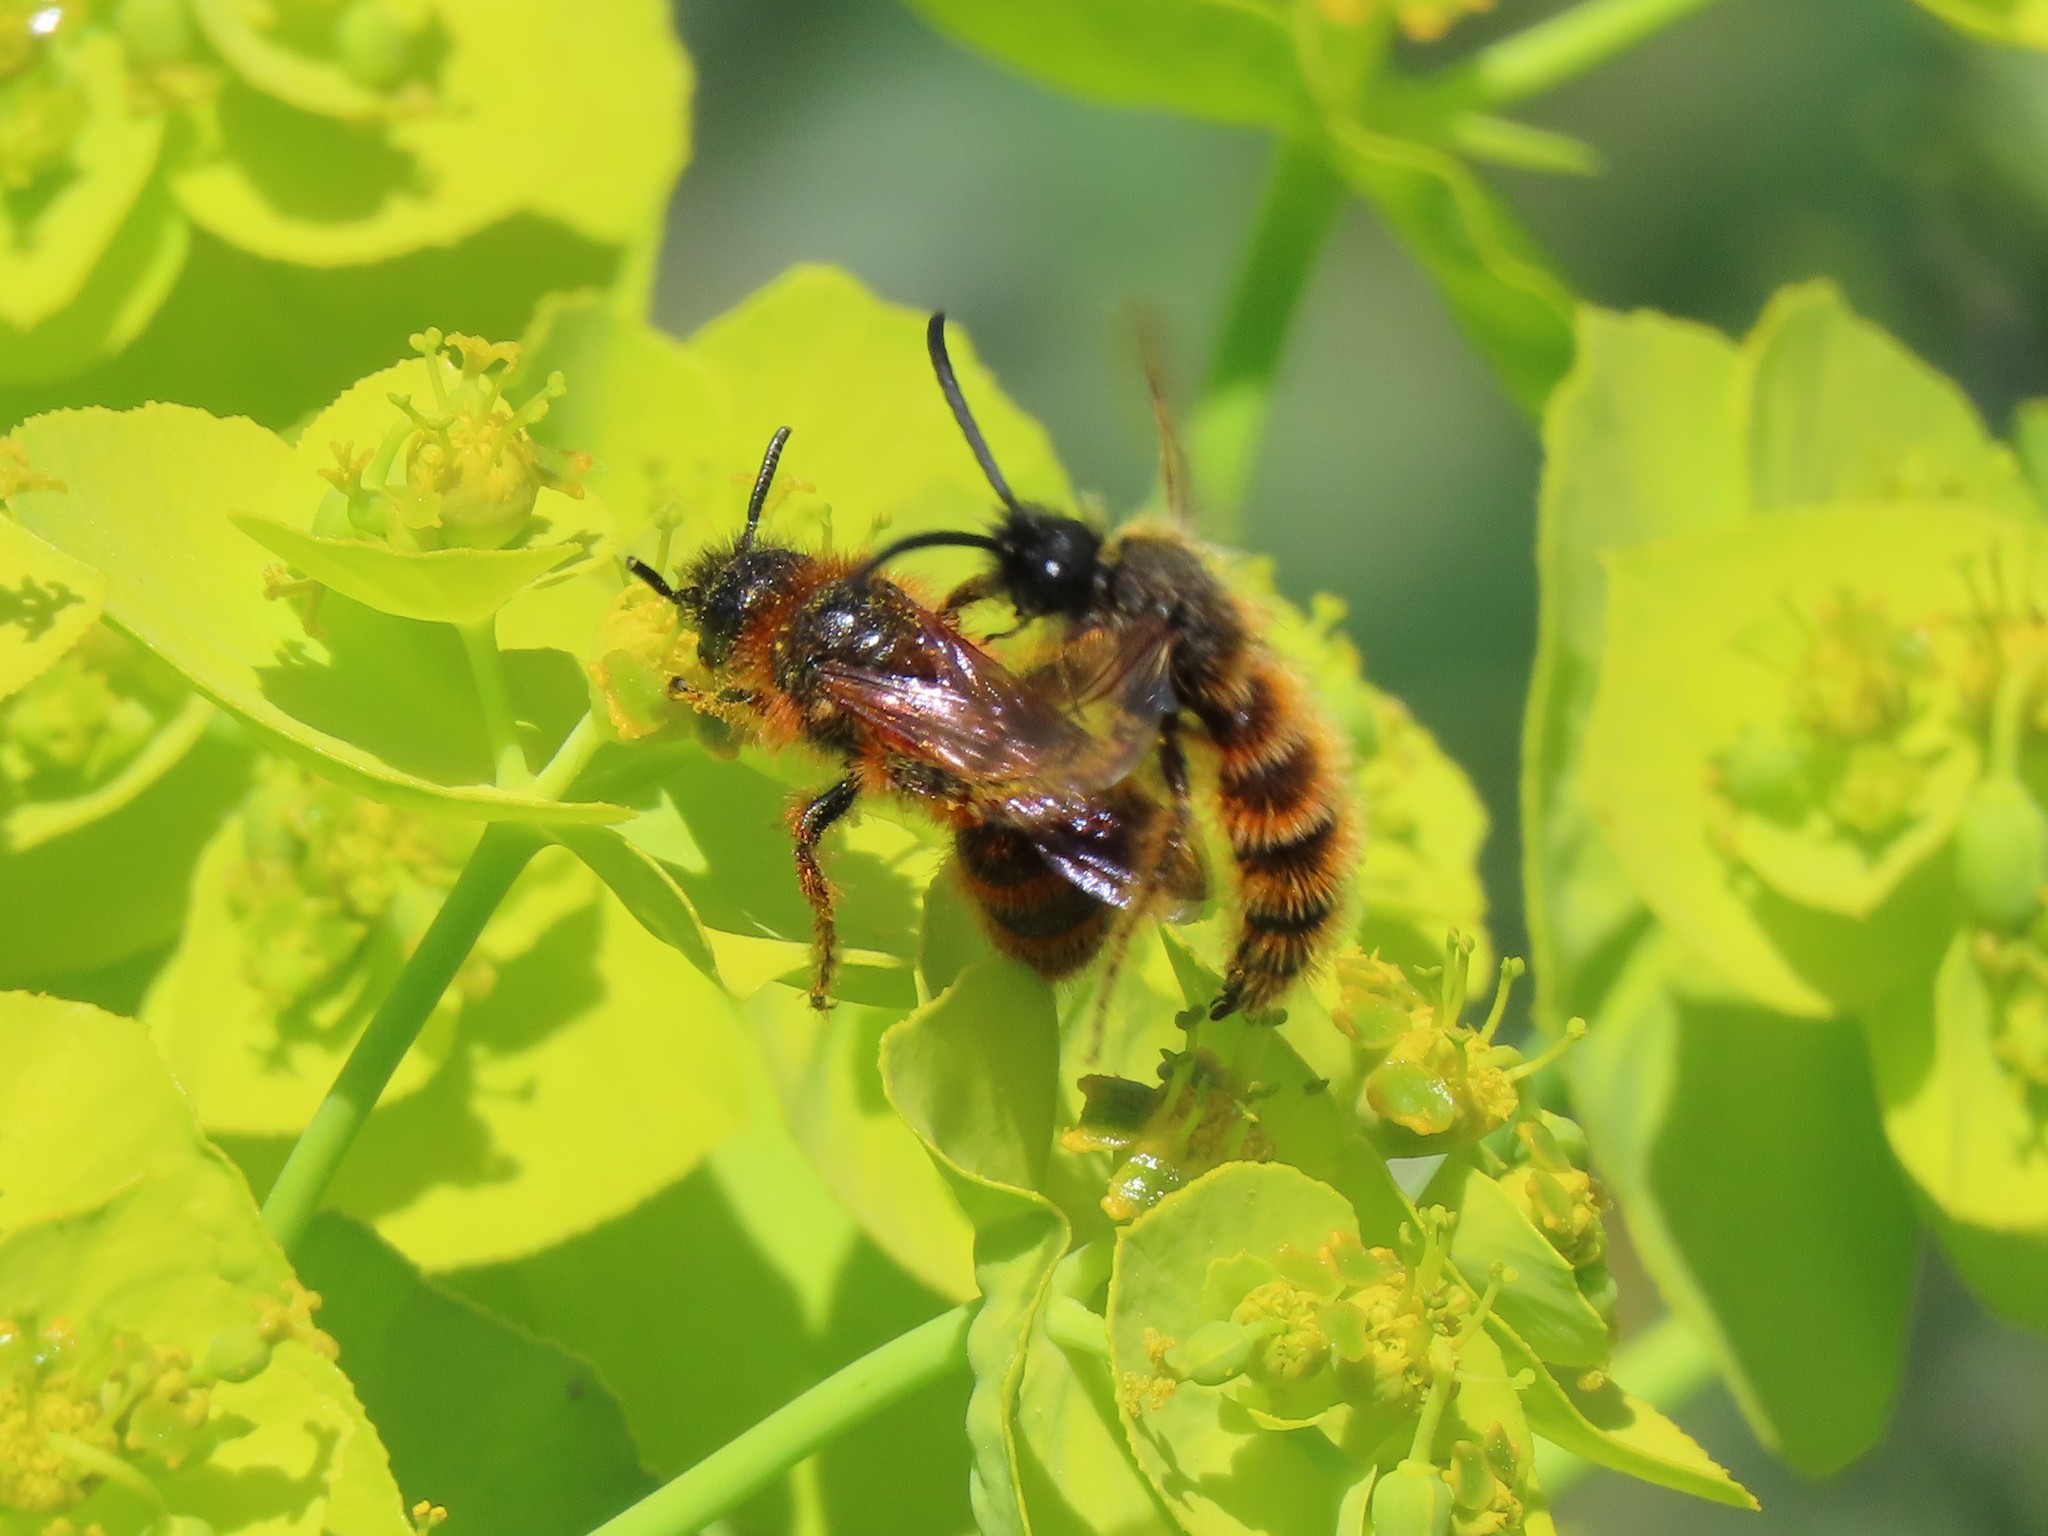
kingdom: Animalia
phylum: Arthropoda
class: Insecta
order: Hymenoptera
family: Scoliidae
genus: Dasyscolia
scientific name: Dasyscolia ciliata
